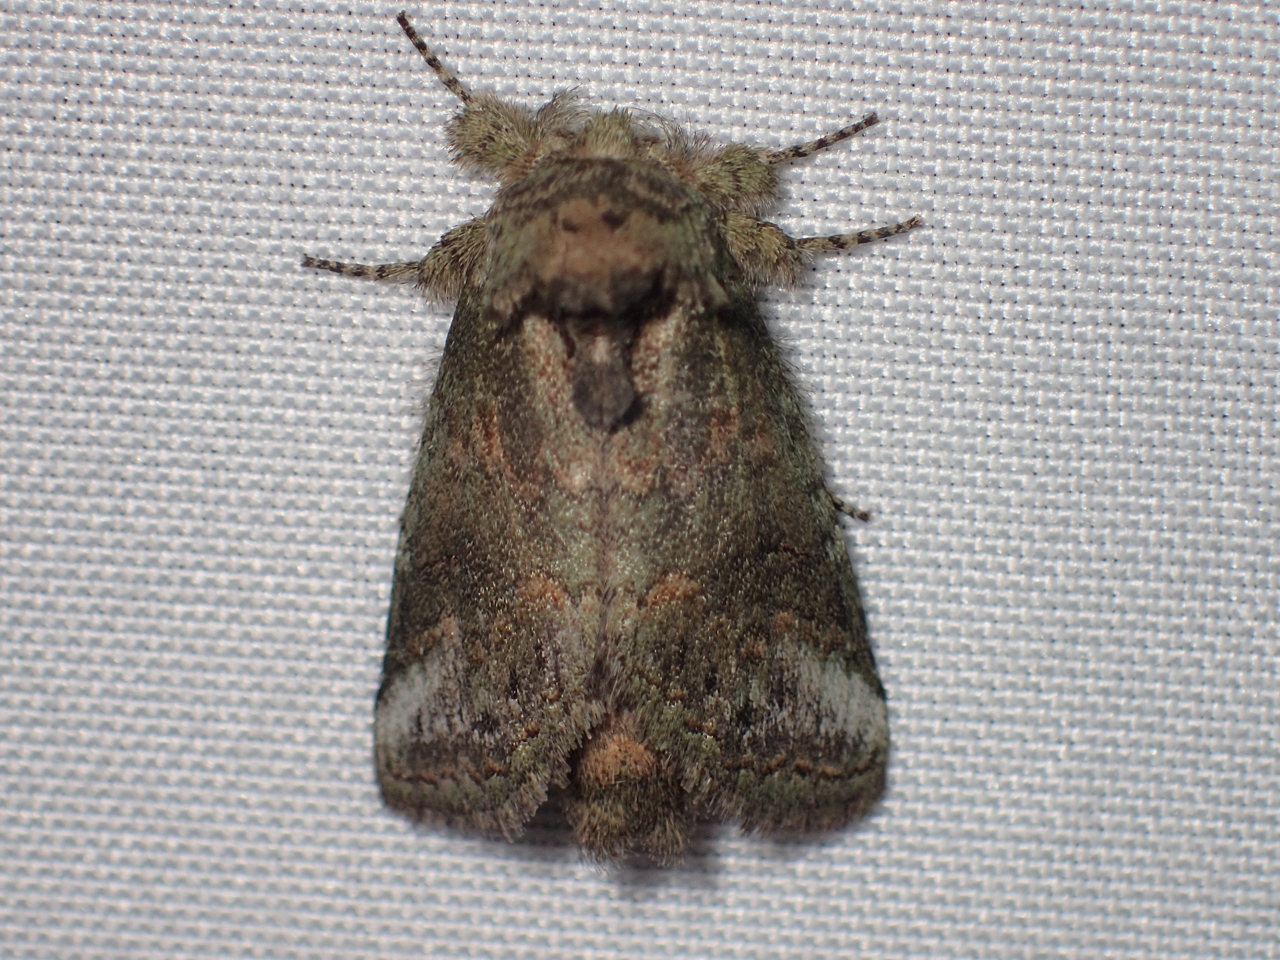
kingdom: Animalia
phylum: Arthropoda
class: Insecta
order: Lepidoptera
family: Notodontidae
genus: Heterocampa
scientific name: Heterocampa
